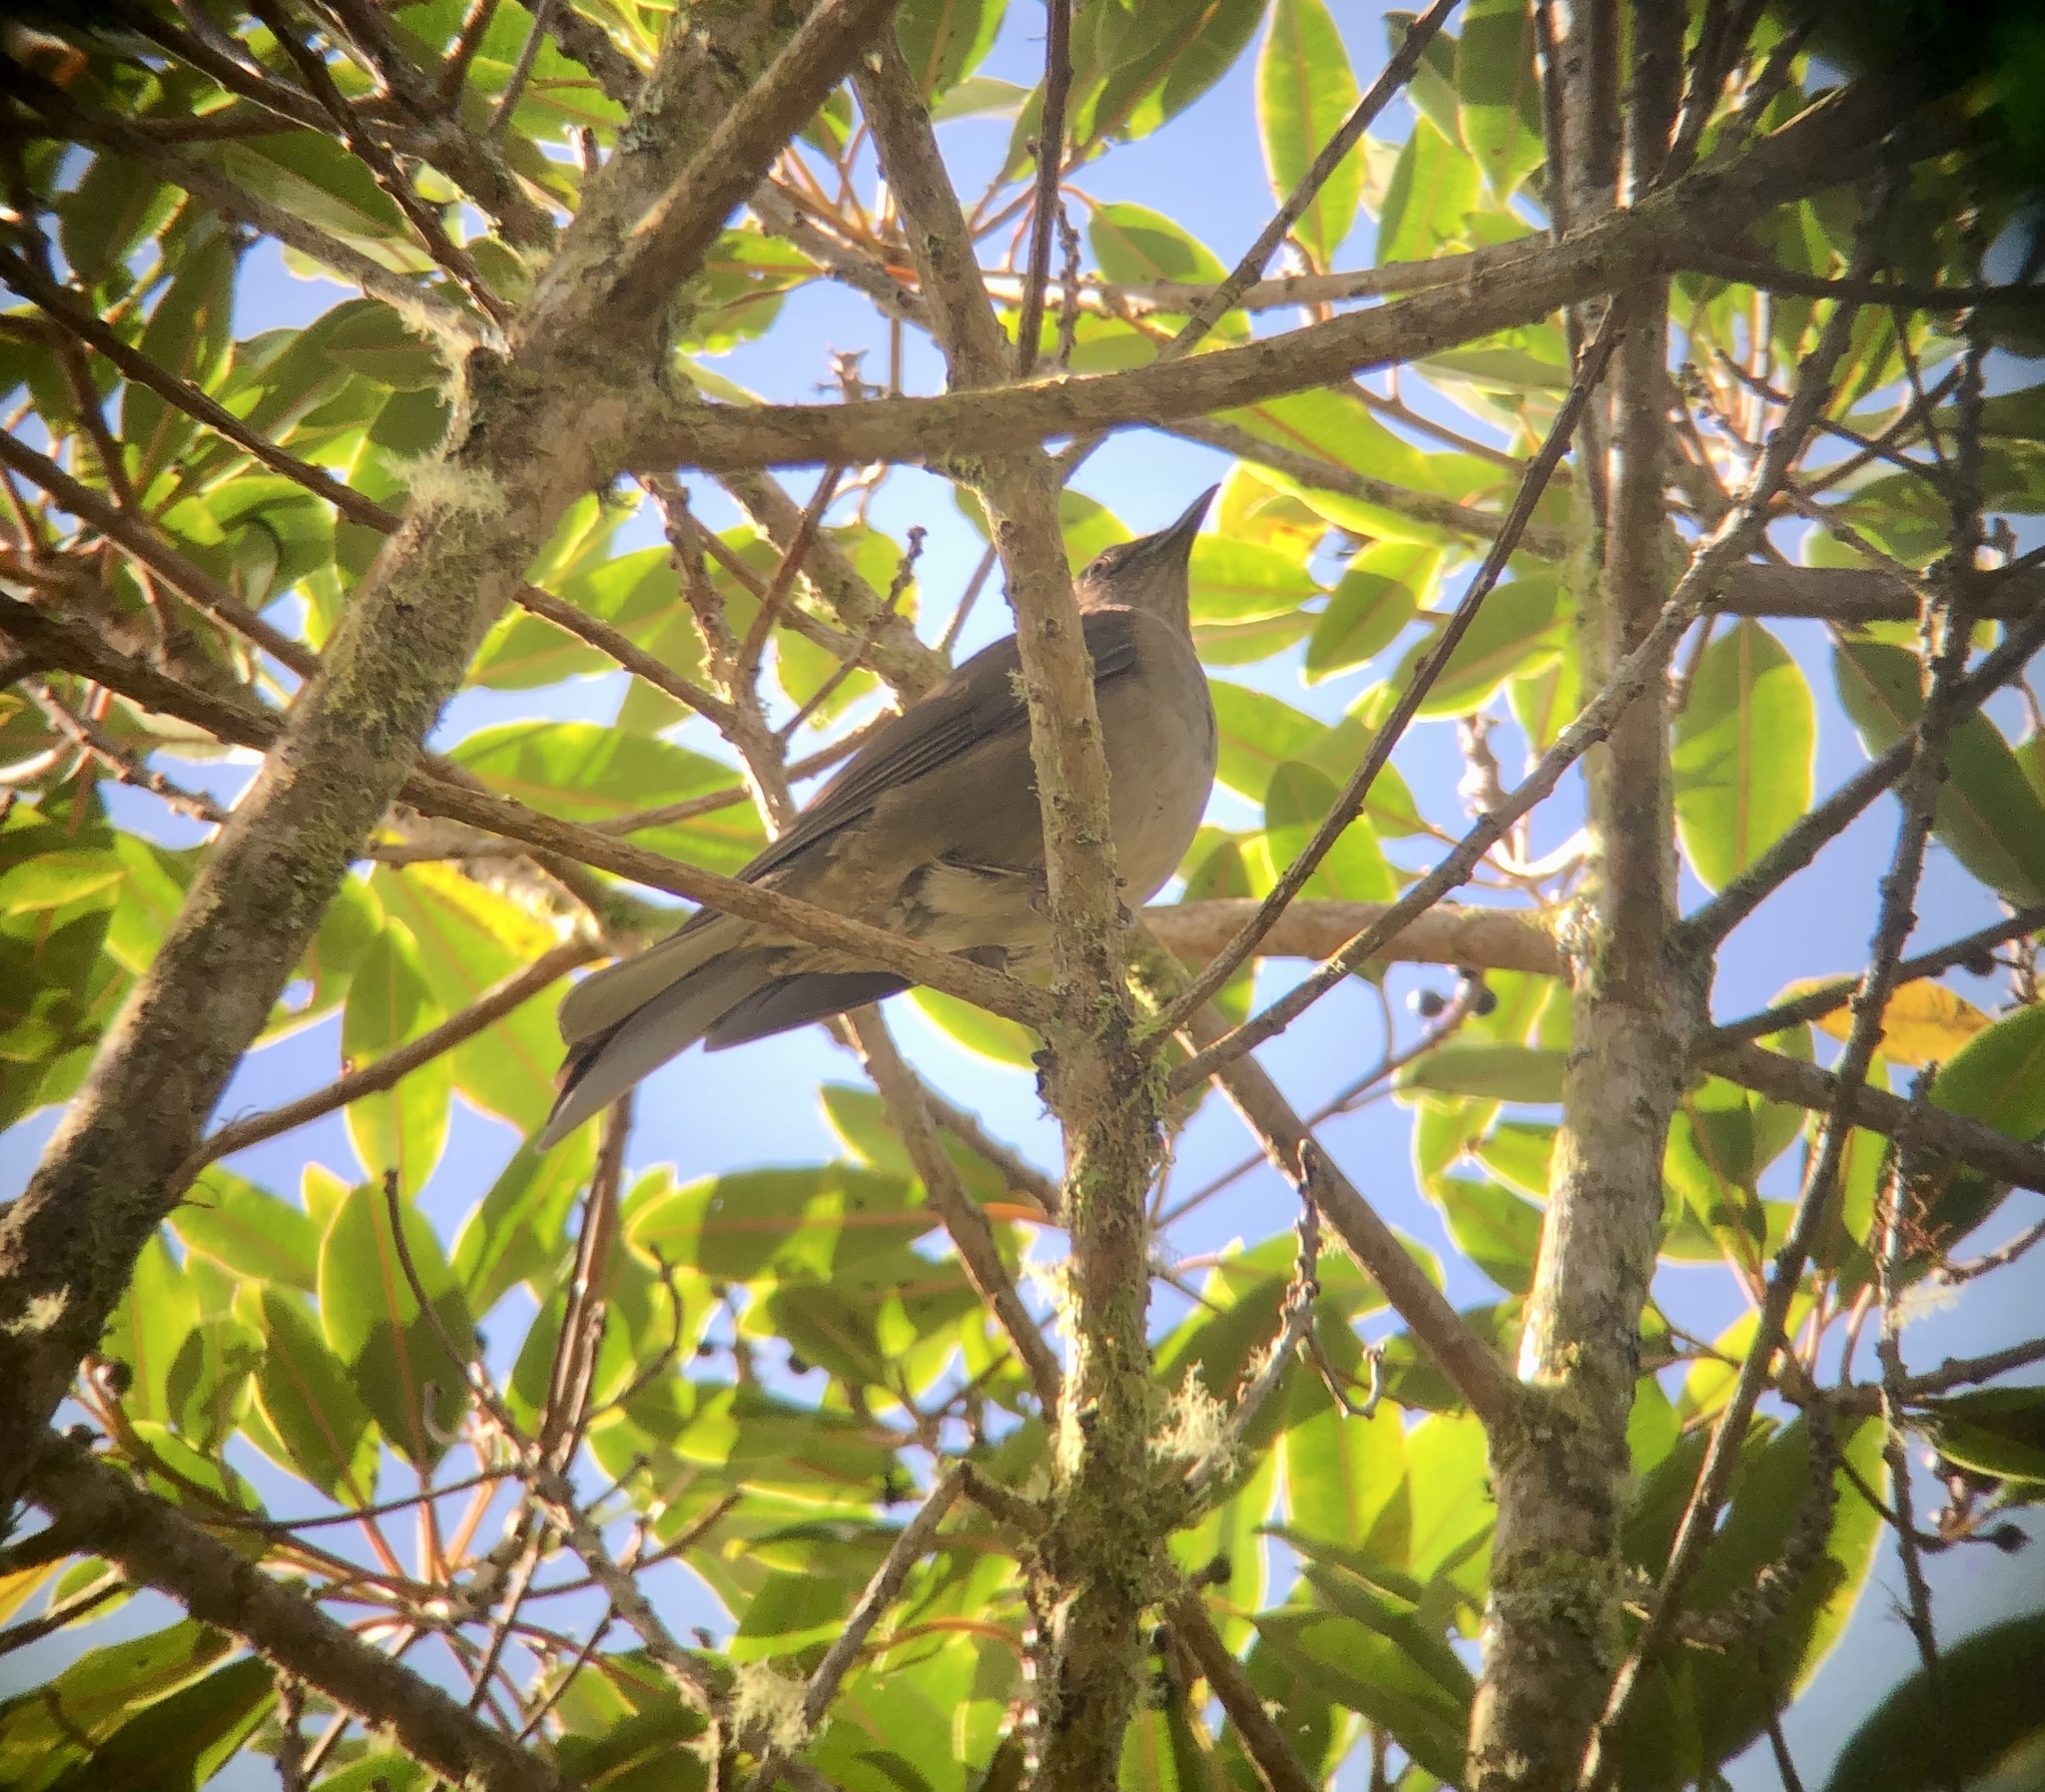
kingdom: Animalia
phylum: Chordata
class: Aves
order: Passeriformes
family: Turdidae
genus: Turdus
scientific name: Turdus plebejus
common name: Mountain thrush
